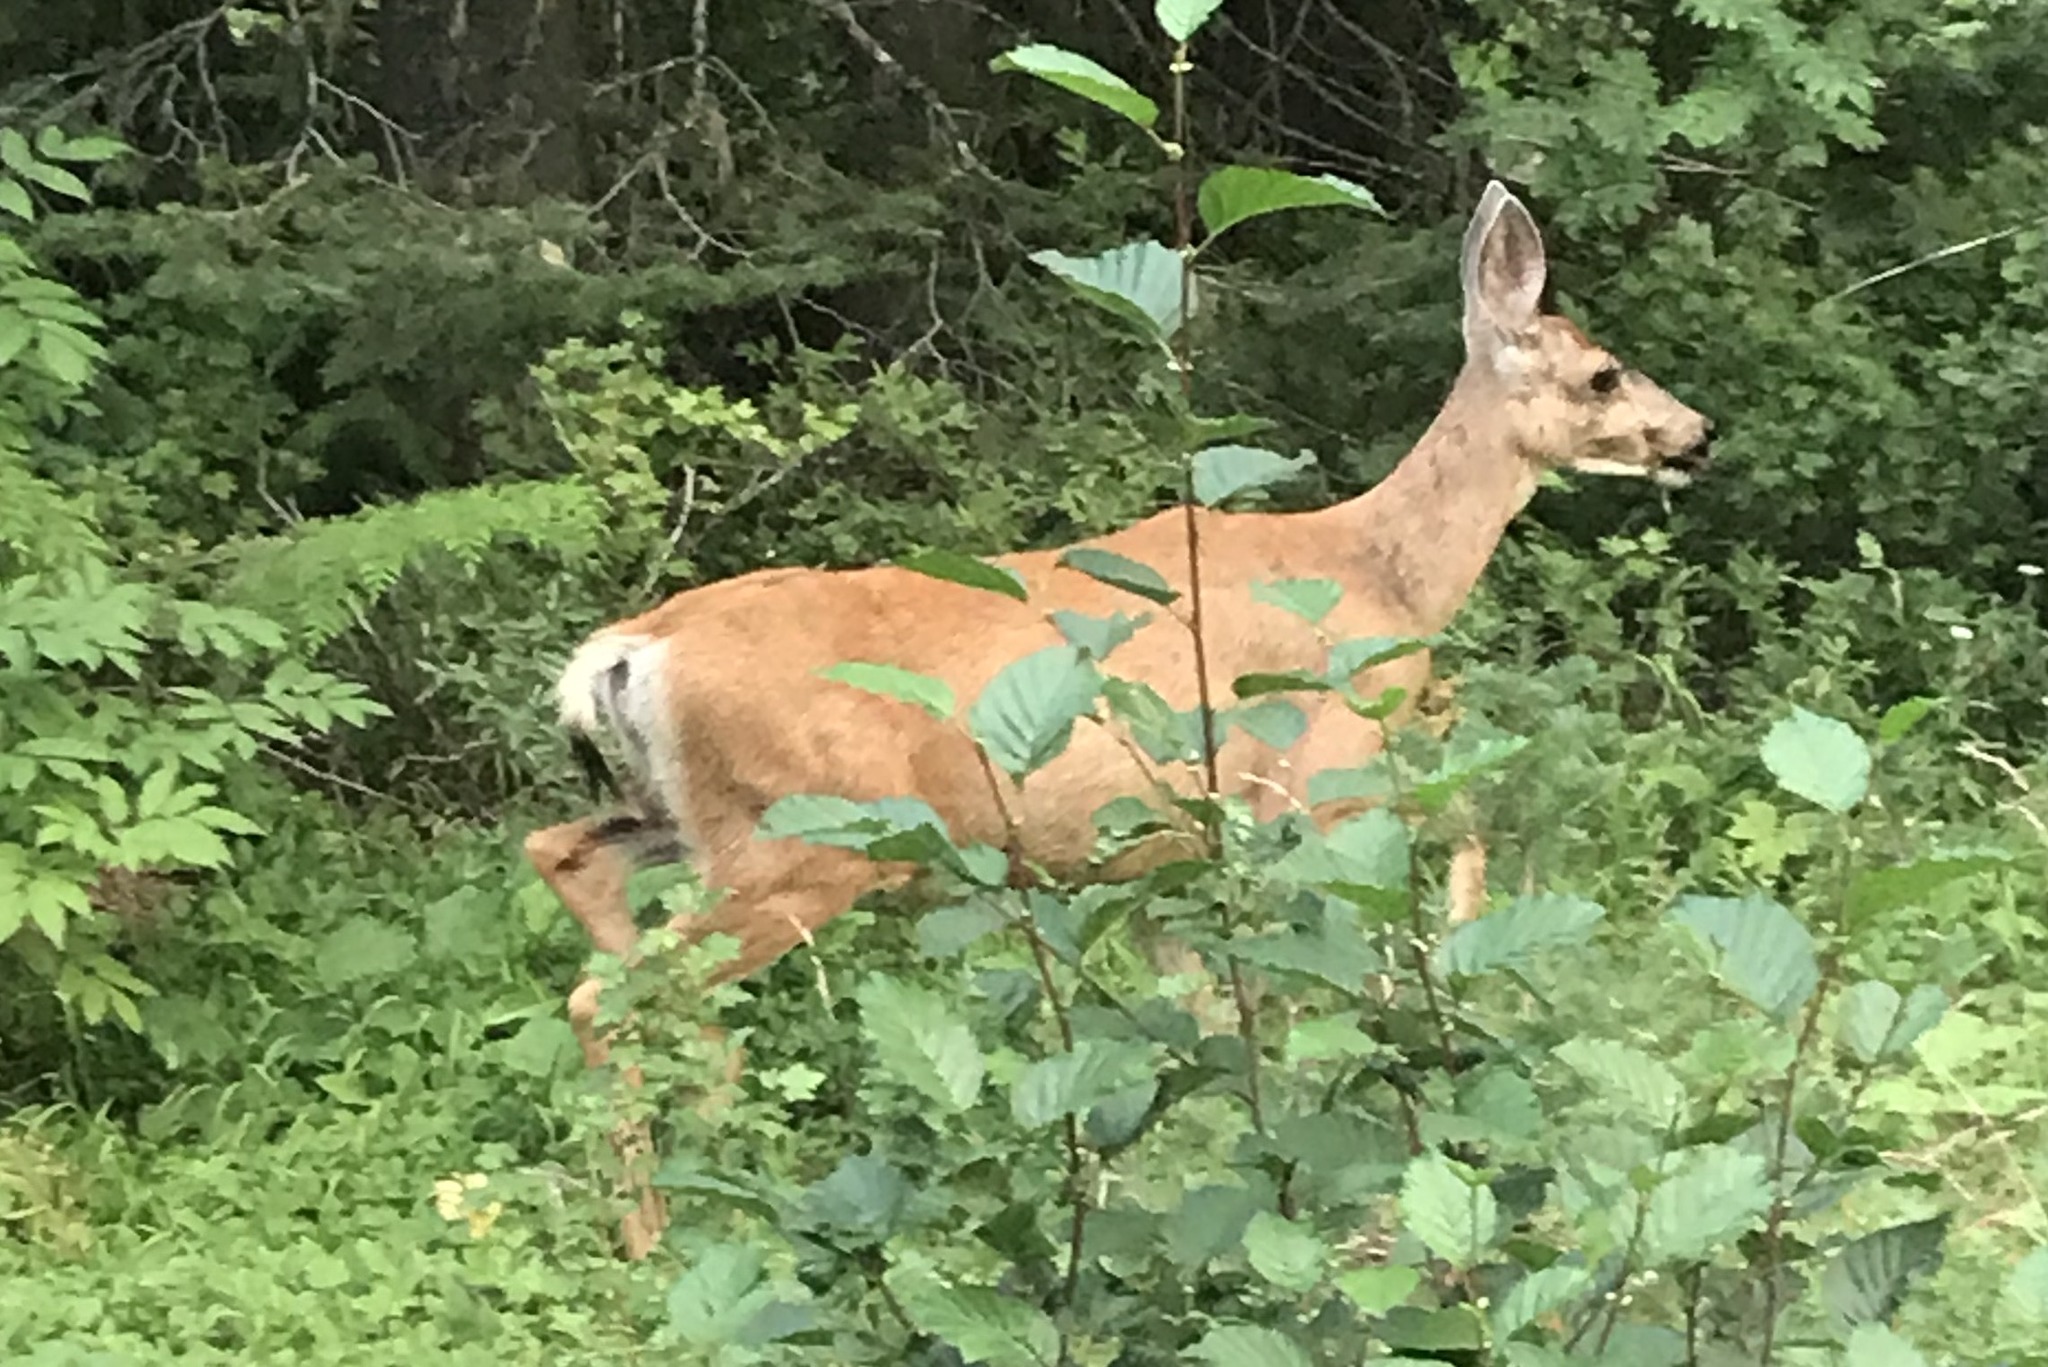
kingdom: Animalia
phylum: Chordata
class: Mammalia
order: Artiodactyla
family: Cervidae
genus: Odocoileus
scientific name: Odocoileus hemionus
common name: Mule deer
